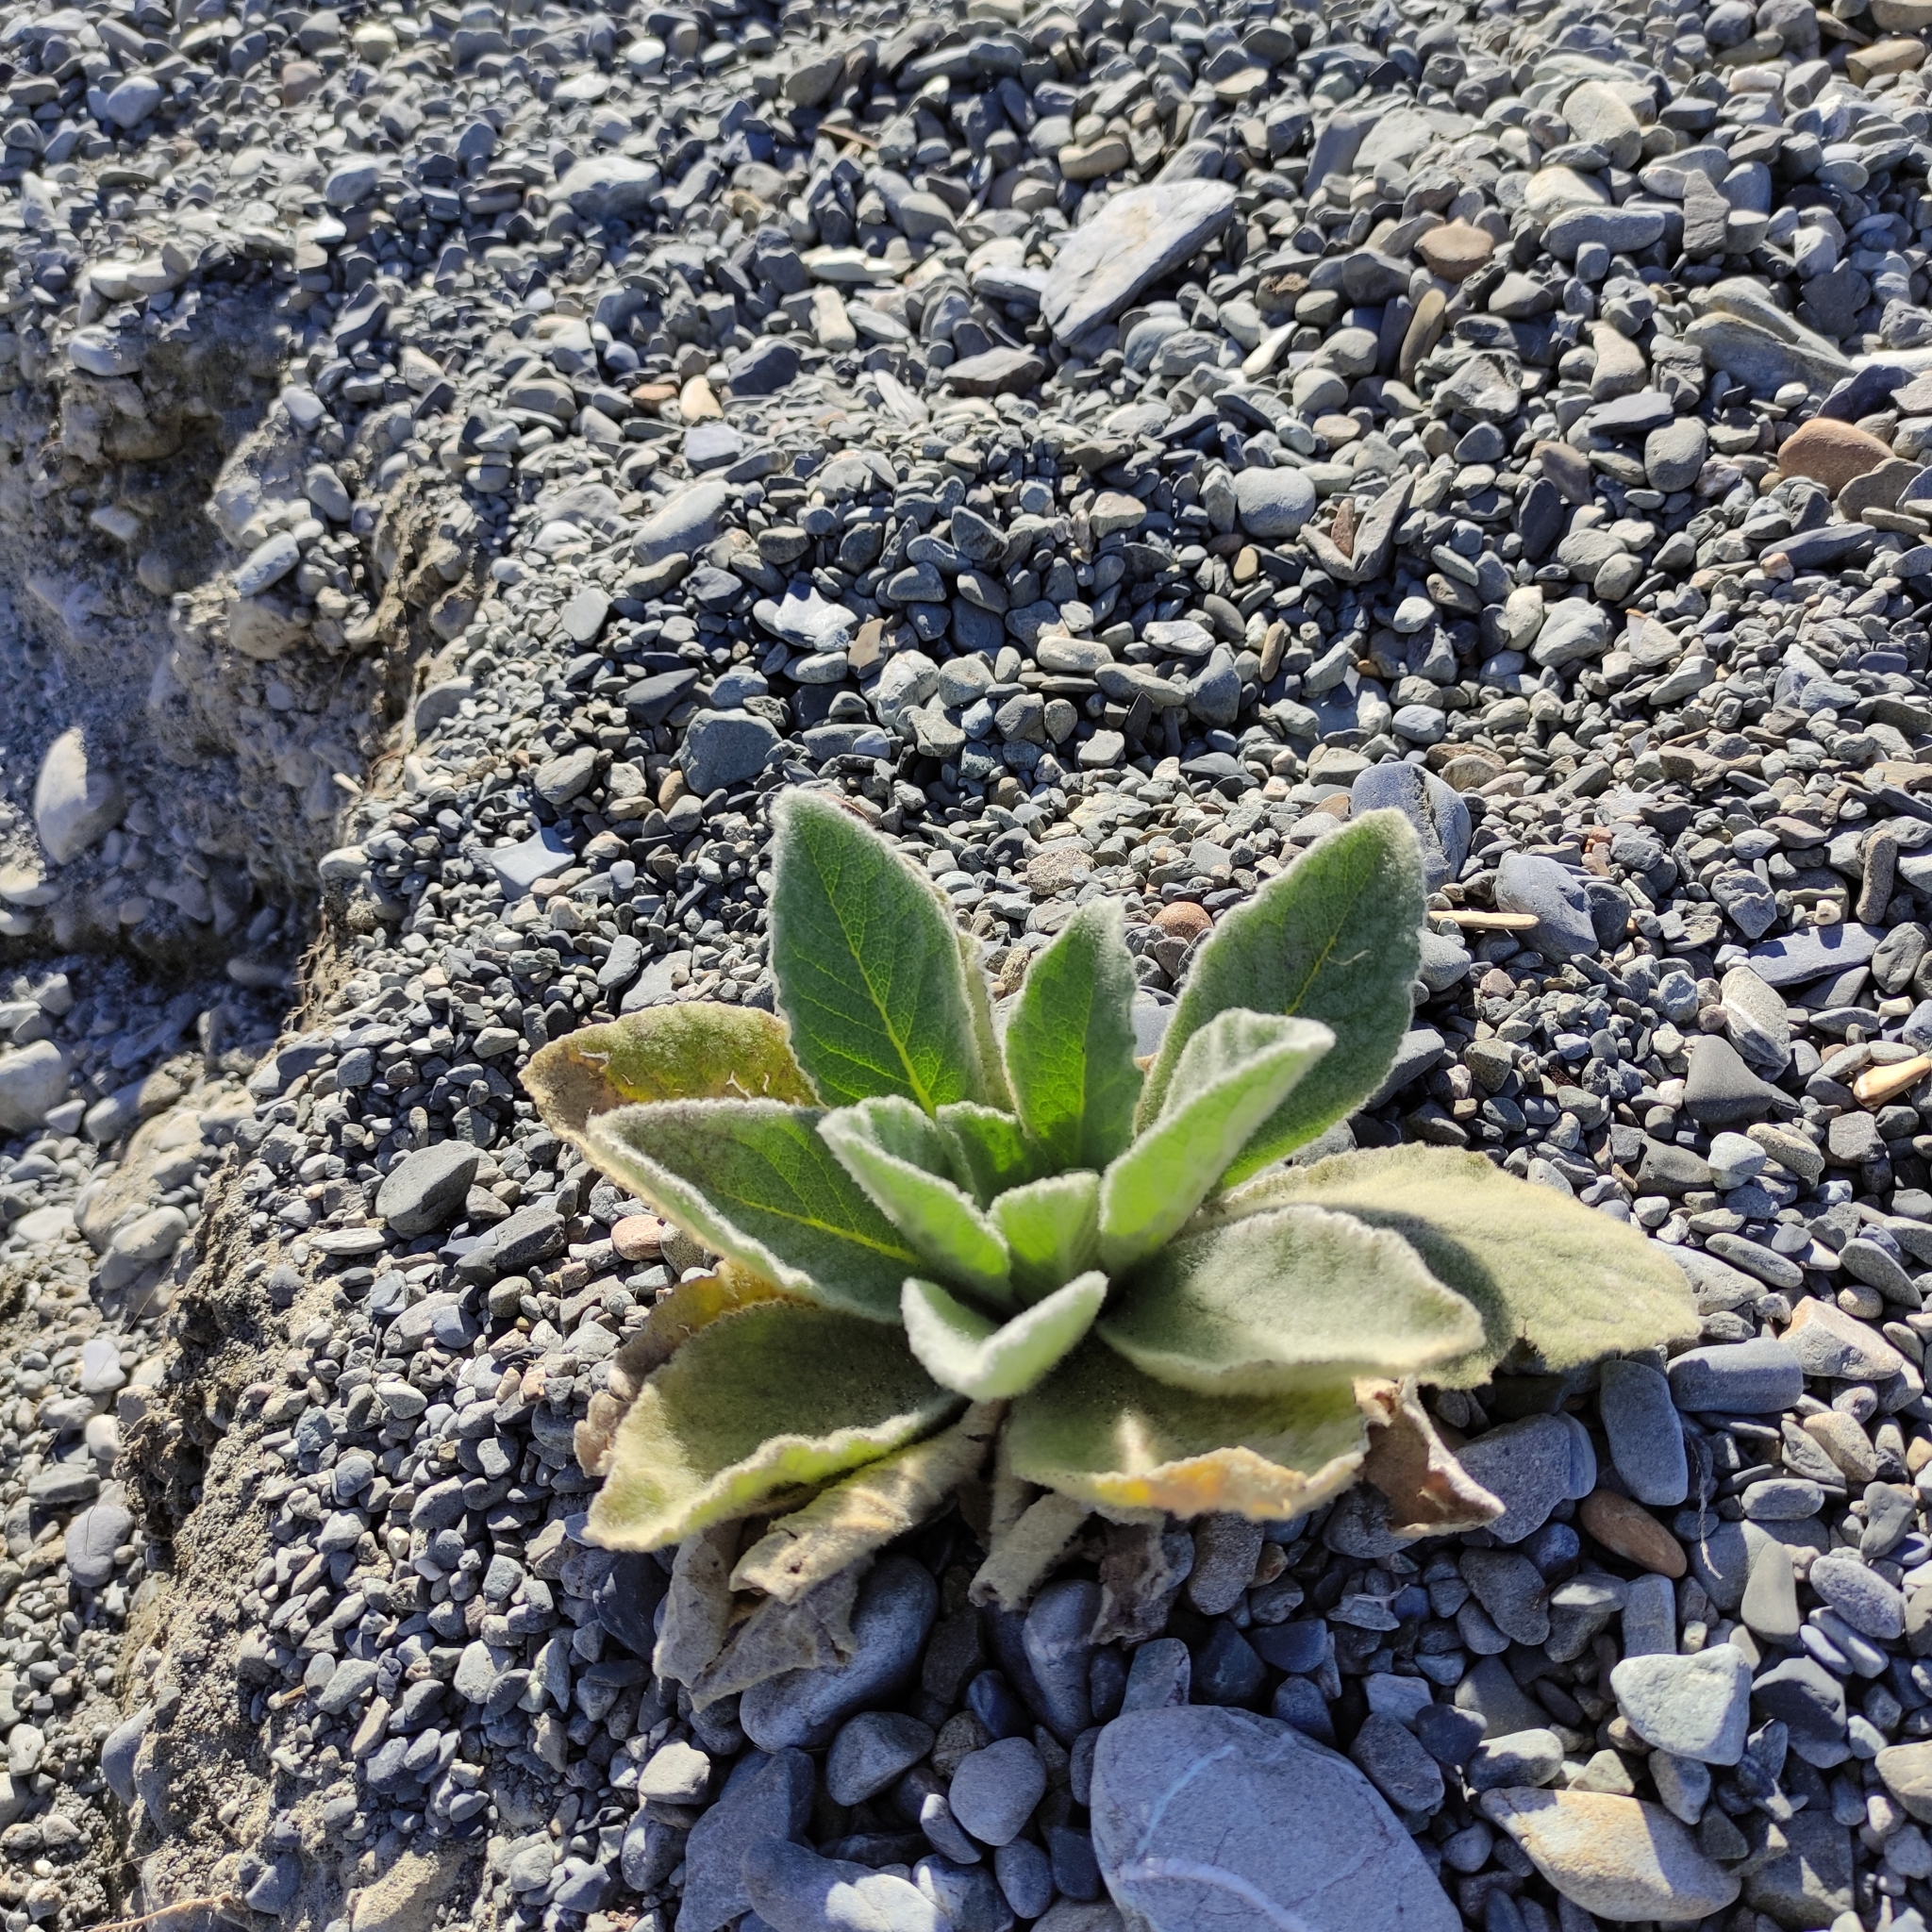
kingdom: Plantae
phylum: Tracheophyta
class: Magnoliopsida
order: Lamiales
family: Scrophulariaceae
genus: Verbascum
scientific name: Verbascum thapsus
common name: Common mullein
